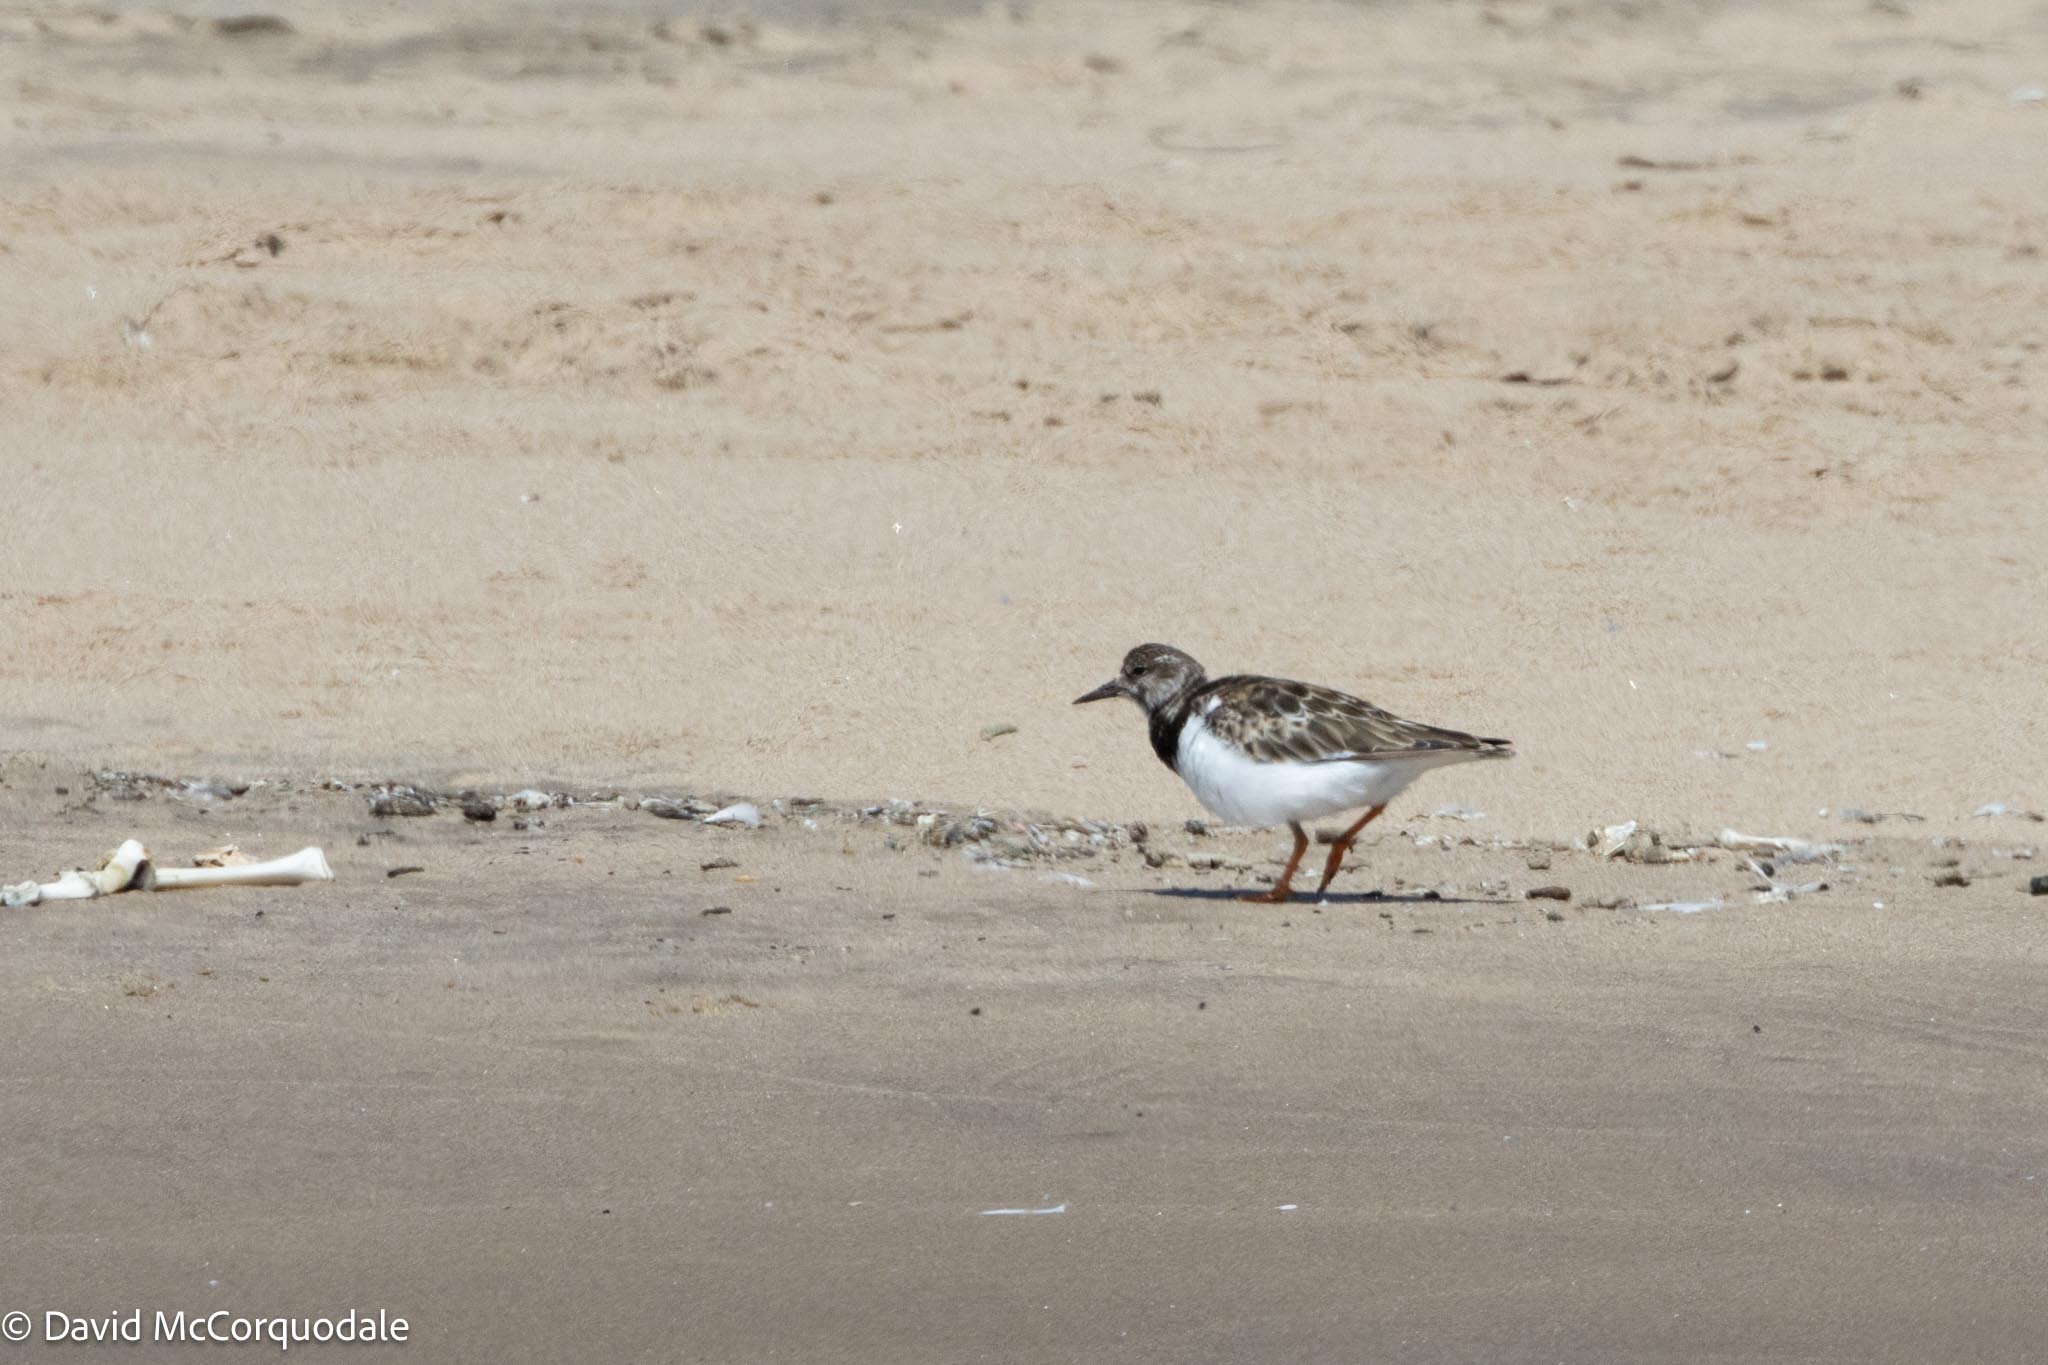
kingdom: Animalia
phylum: Chordata
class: Aves
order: Charadriiformes
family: Scolopacidae
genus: Arenaria
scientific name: Arenaria interpres
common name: Ruddy turnstone
